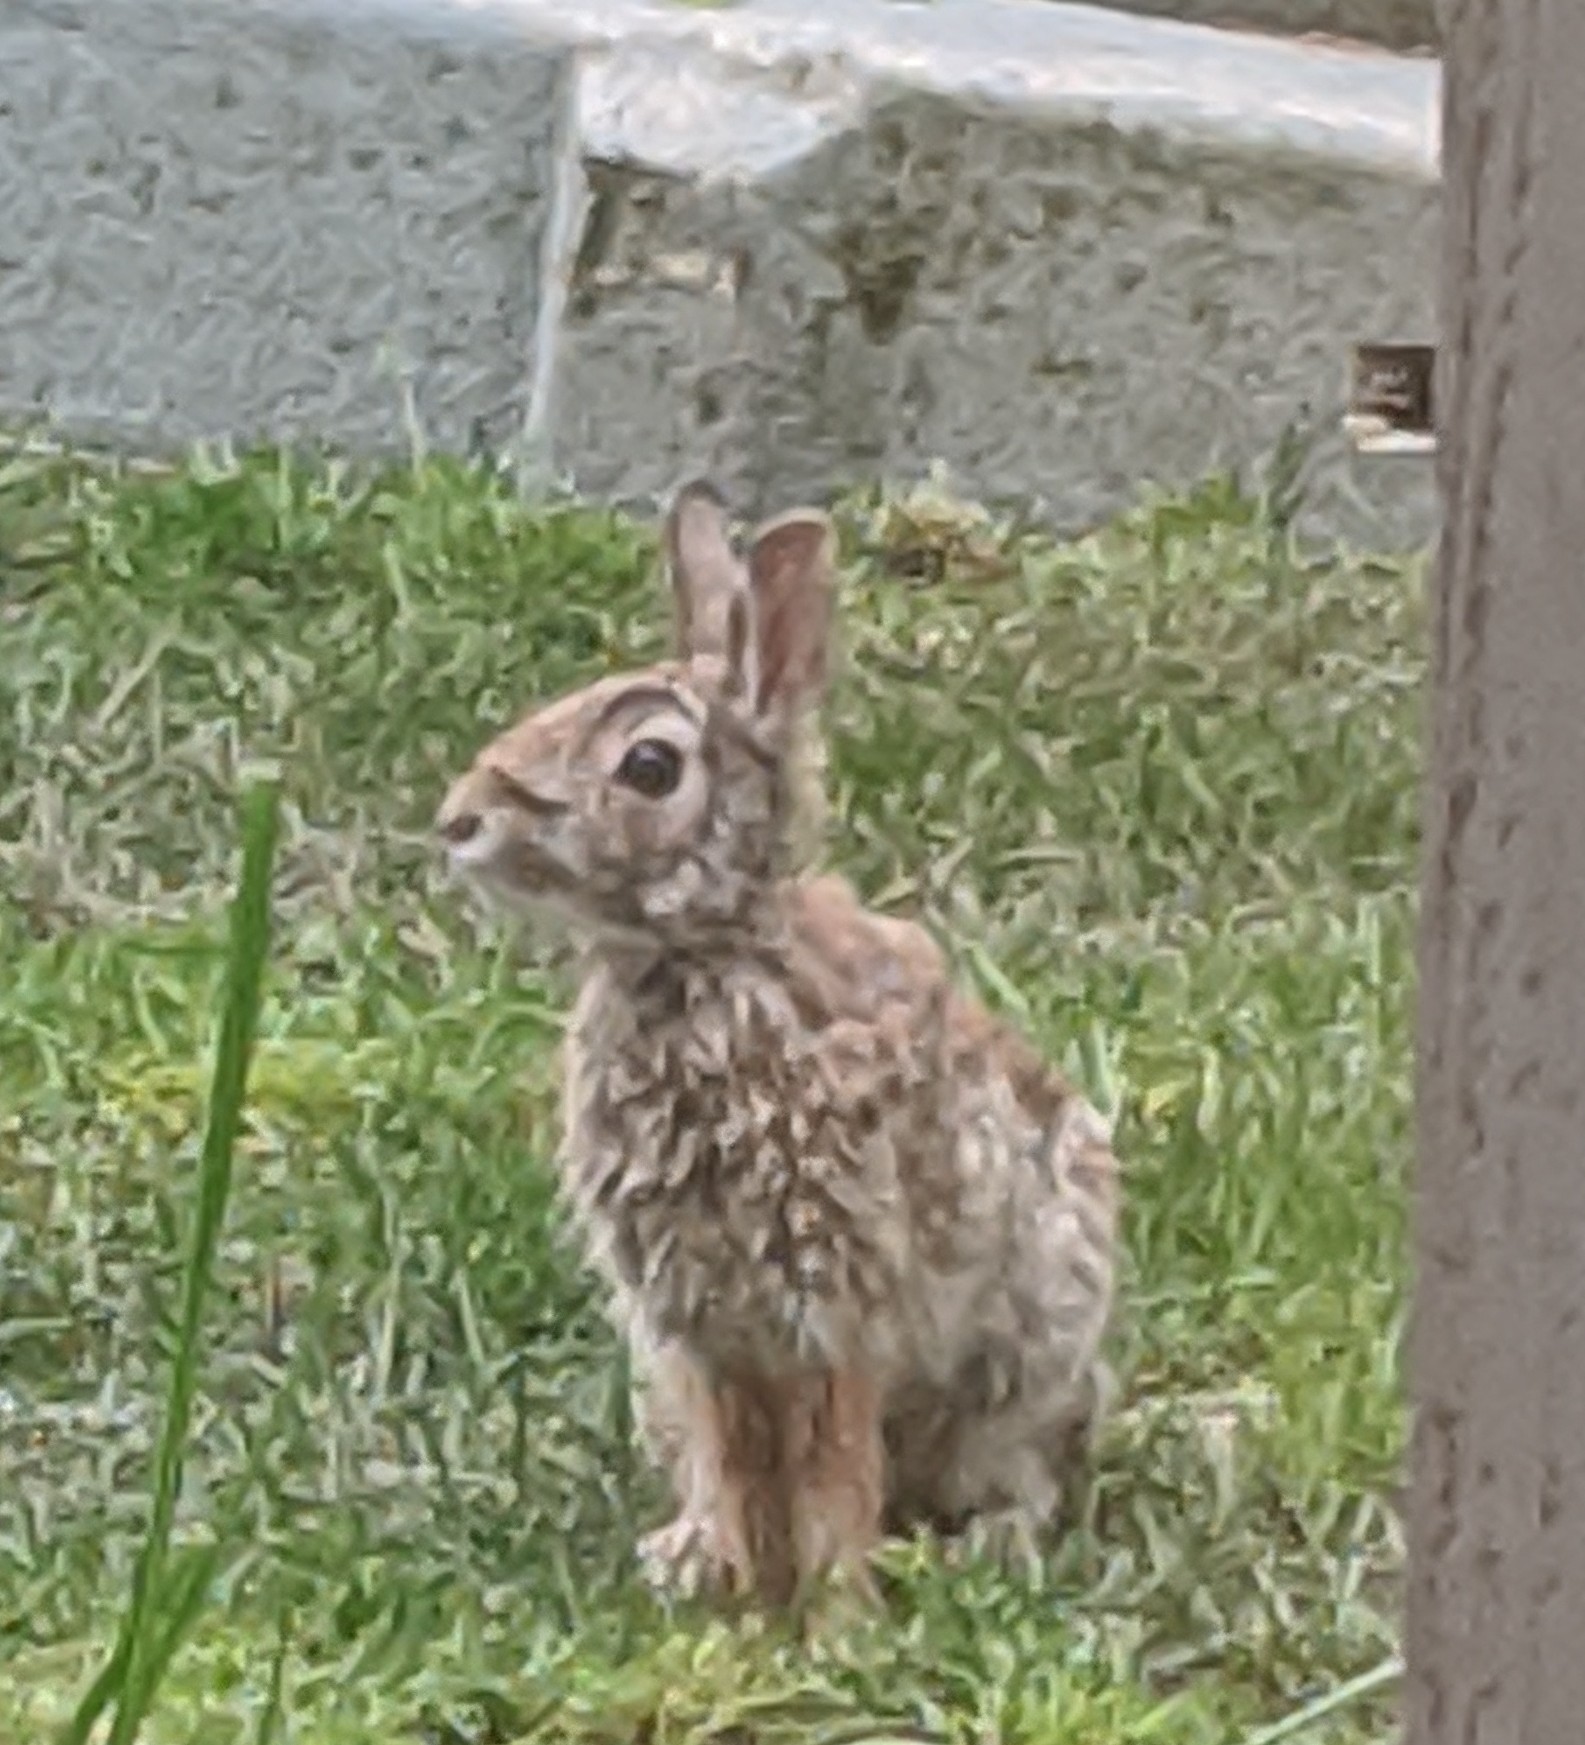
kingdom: Animalia
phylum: Chordata
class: Mammalia
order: Lagomorpha
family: Leporidae
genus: Sylvilagus
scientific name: Sylvilagus floridanus
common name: Eastern cottontail
